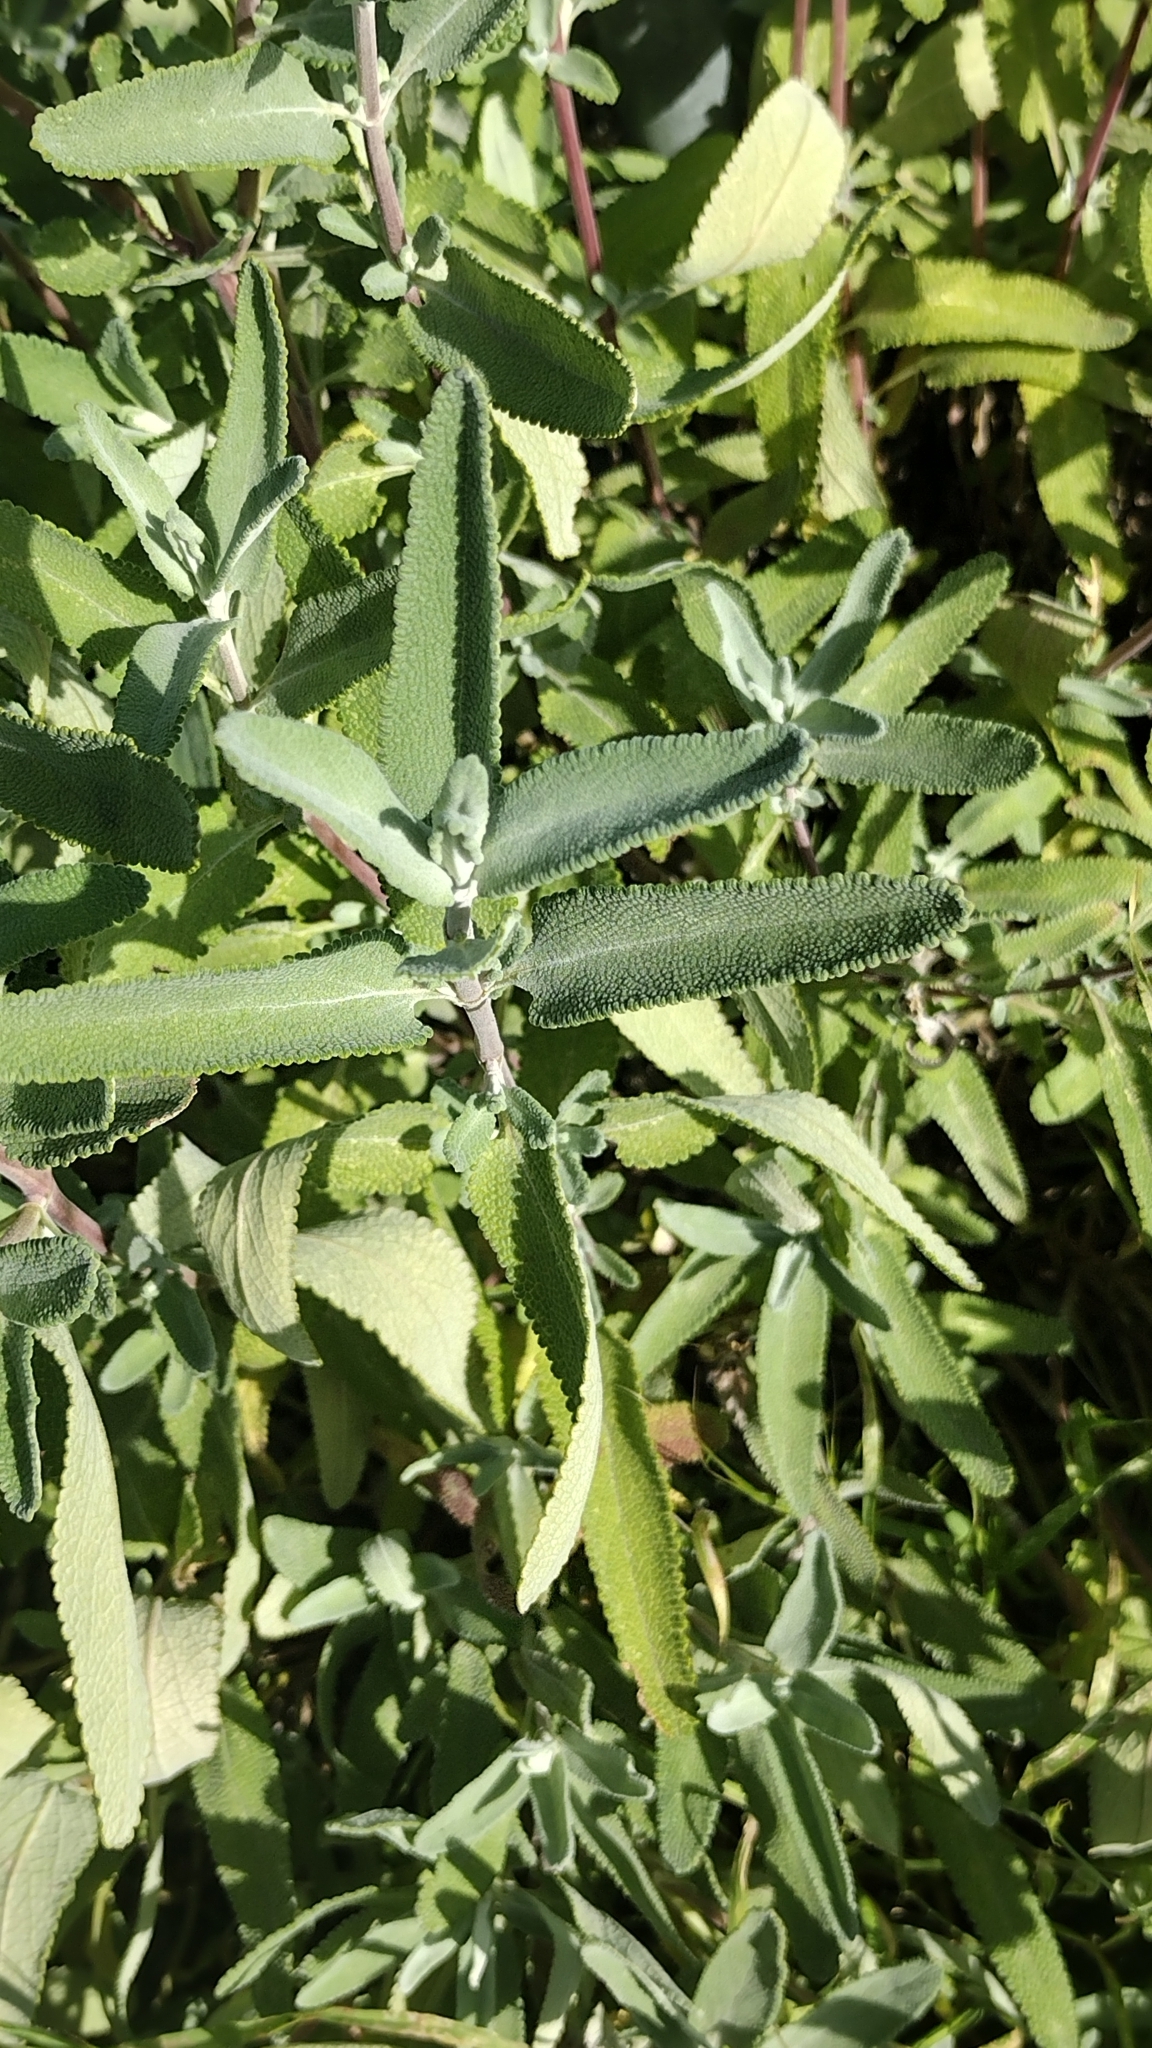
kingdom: Plantae
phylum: Tracheophyta
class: Magnoliopsida
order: Lamiales
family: Lamiaceae
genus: Salvia
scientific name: Salvia leucophylla
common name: Purple sage
